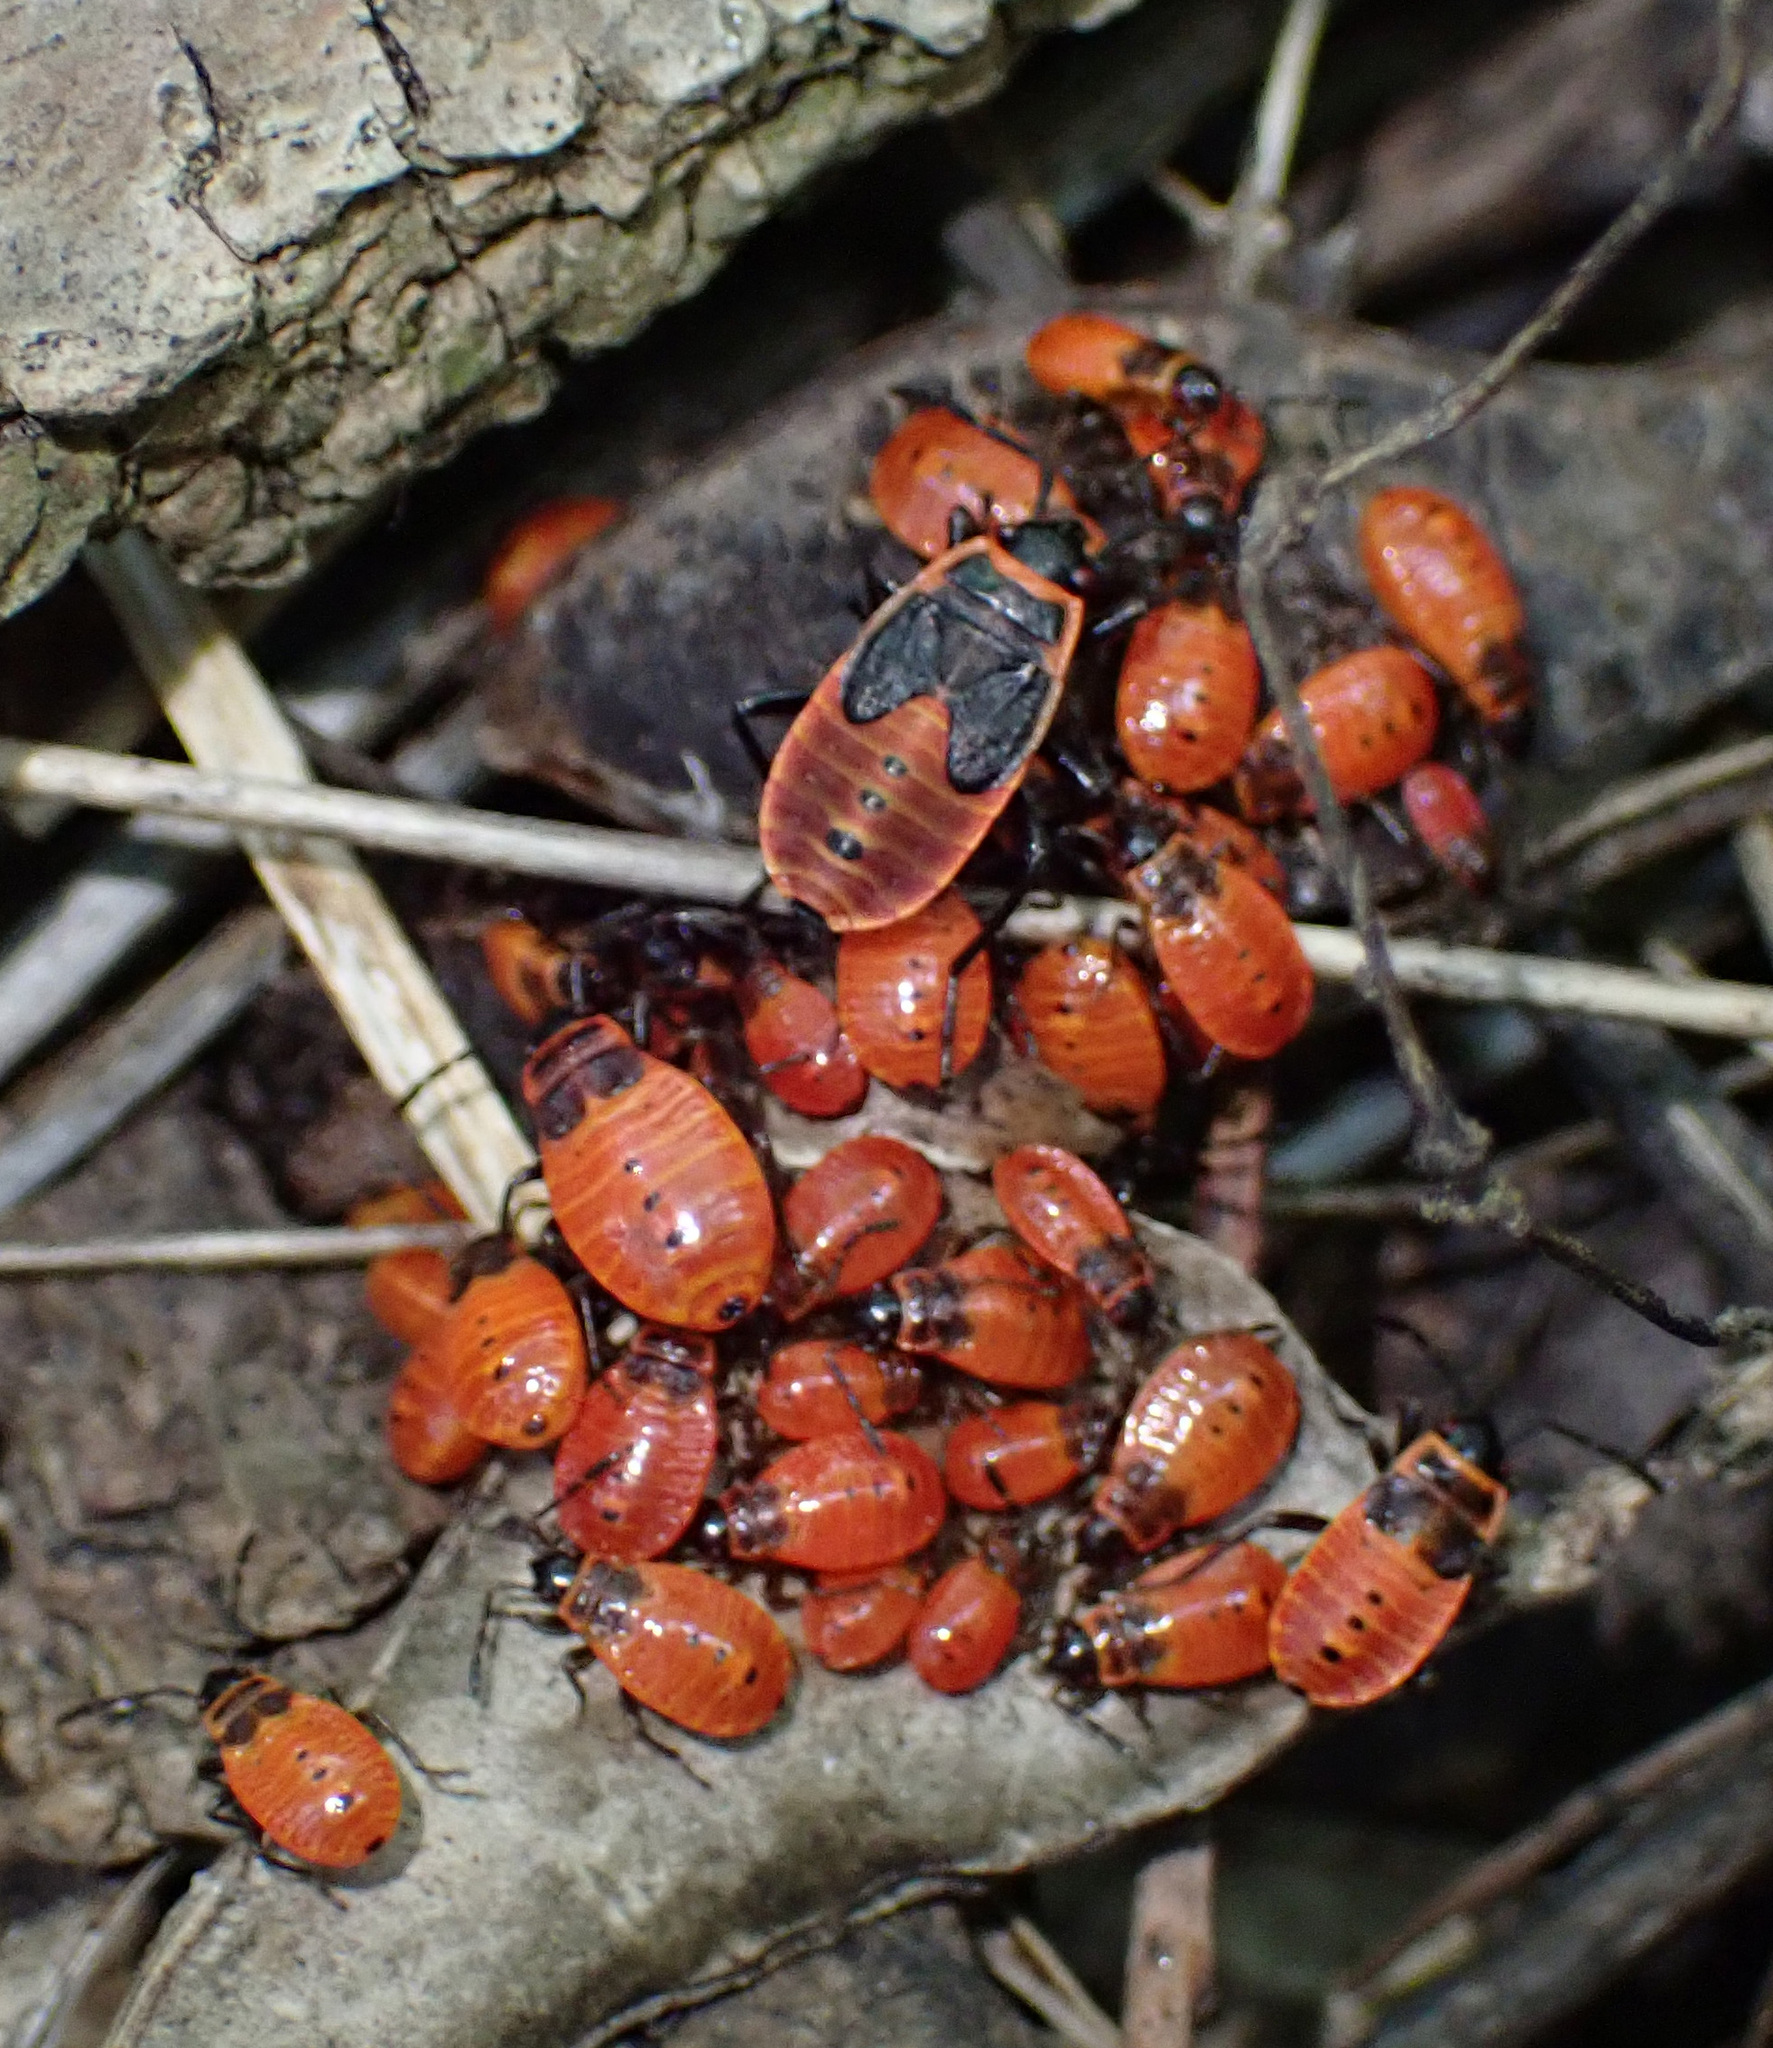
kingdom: Animalia
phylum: Arthropoda
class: Insecta
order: Hemiptera
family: Pyrrhocoridae
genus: Pyrrhocoris
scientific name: Pyrrhocoris apterus
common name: Firebug
